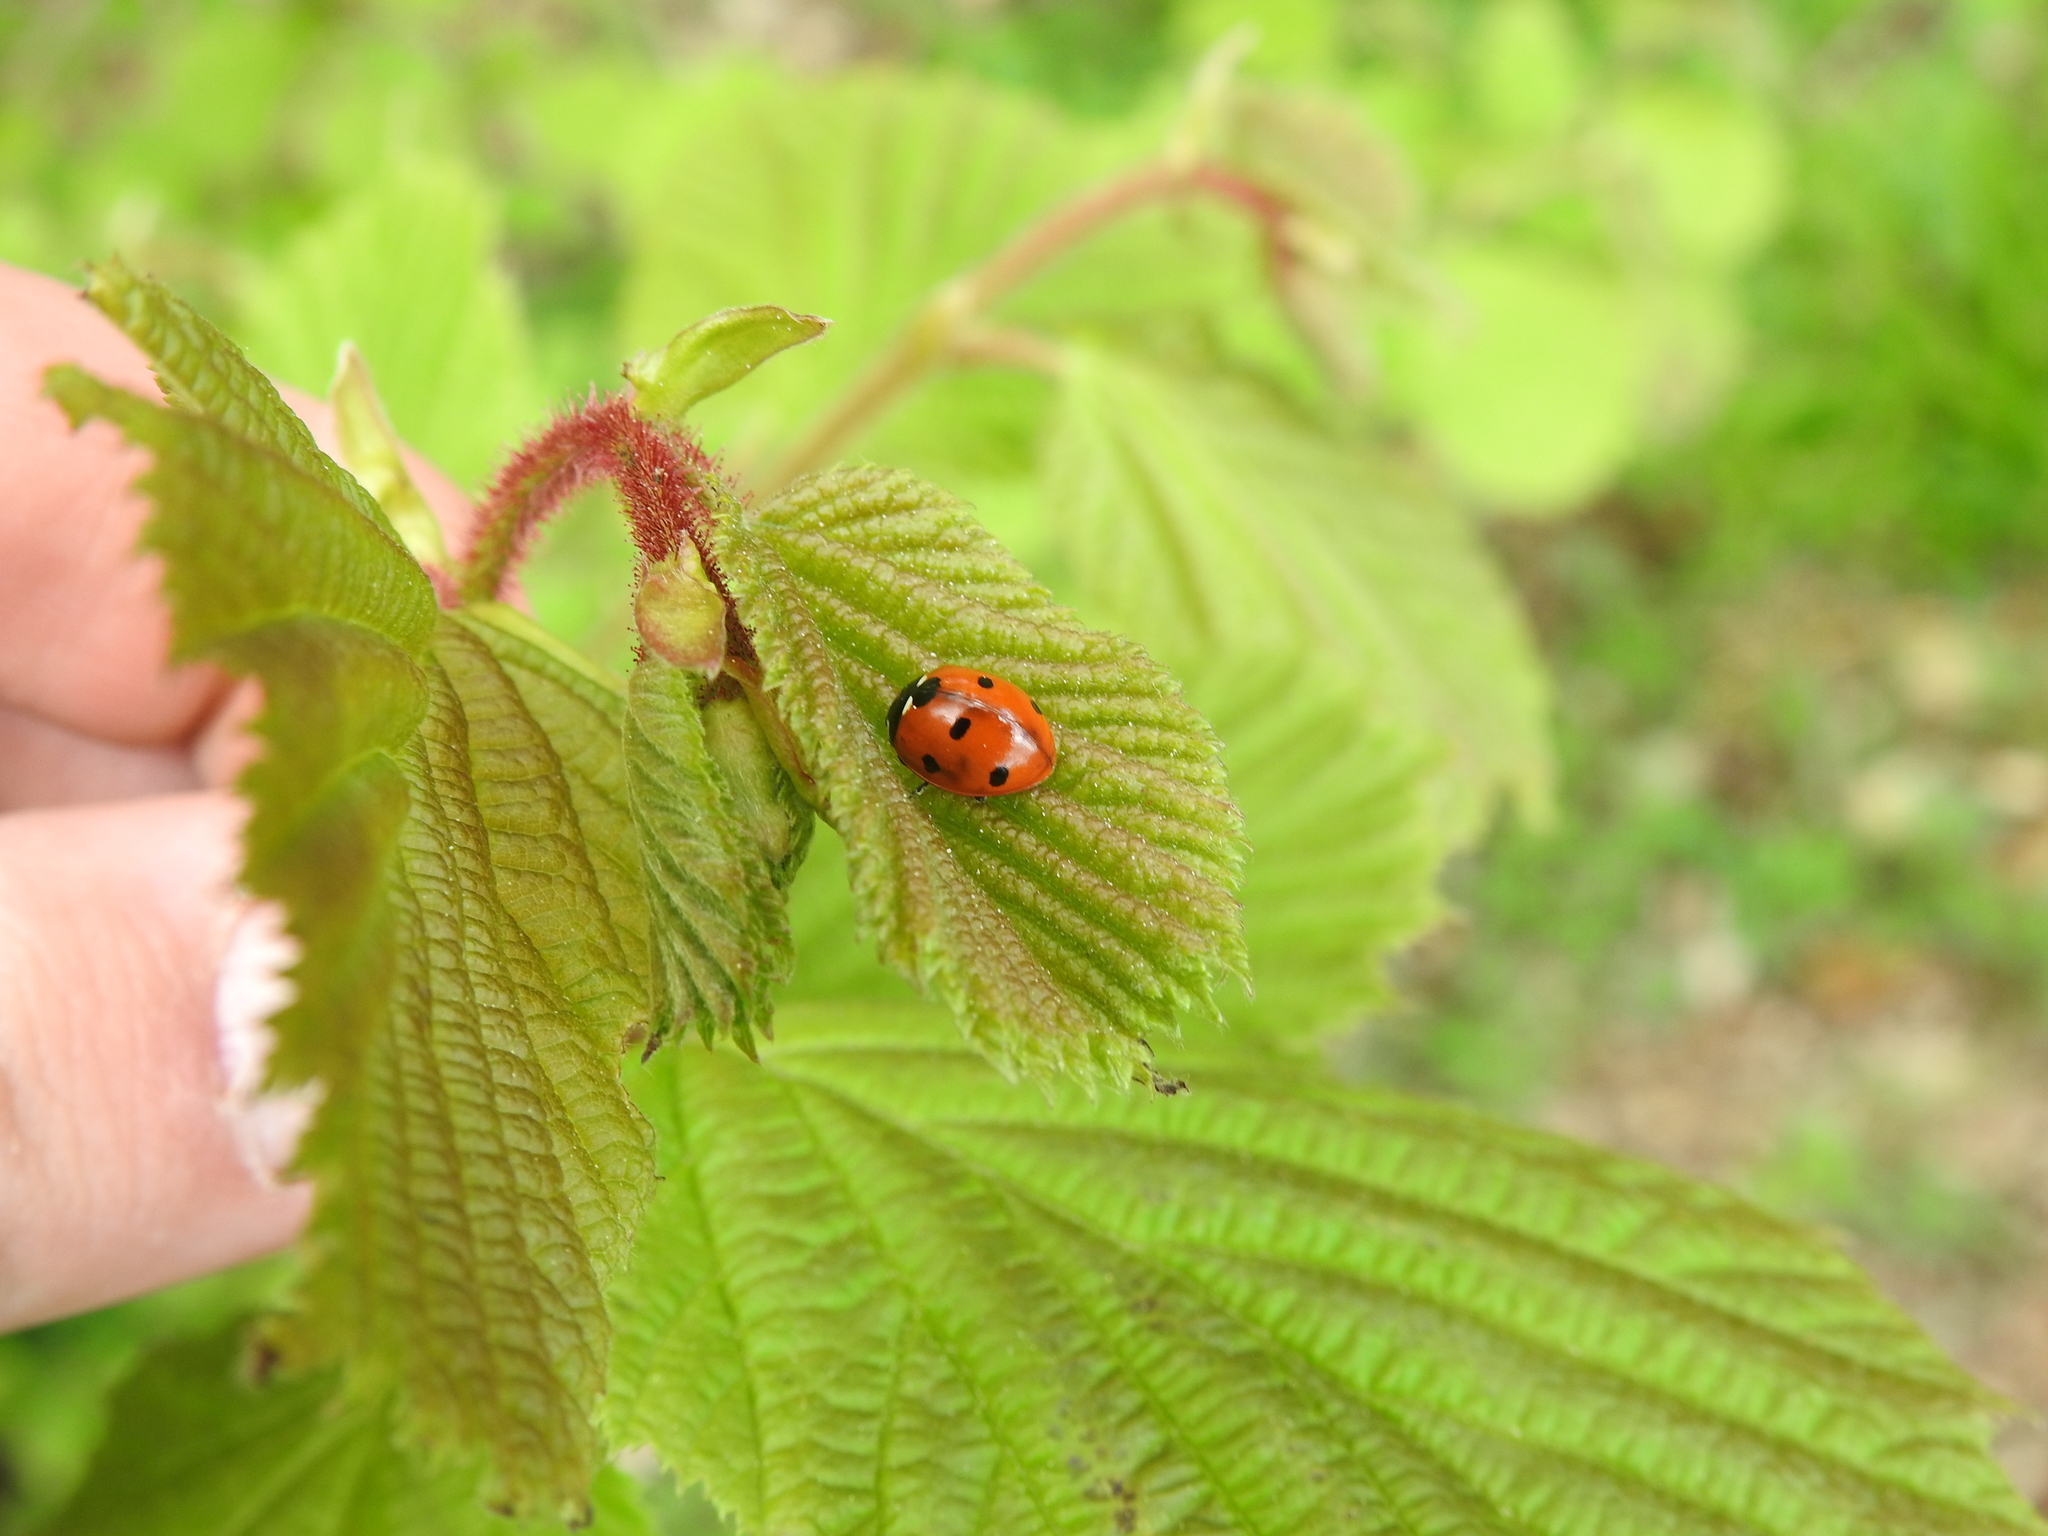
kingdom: Animalia
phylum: Arthropoda
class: Insecta
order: Coleoptera
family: Coccinellidae
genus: Coccinella
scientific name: Coccinella septempunctata
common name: Sevenspotted lady beetle
